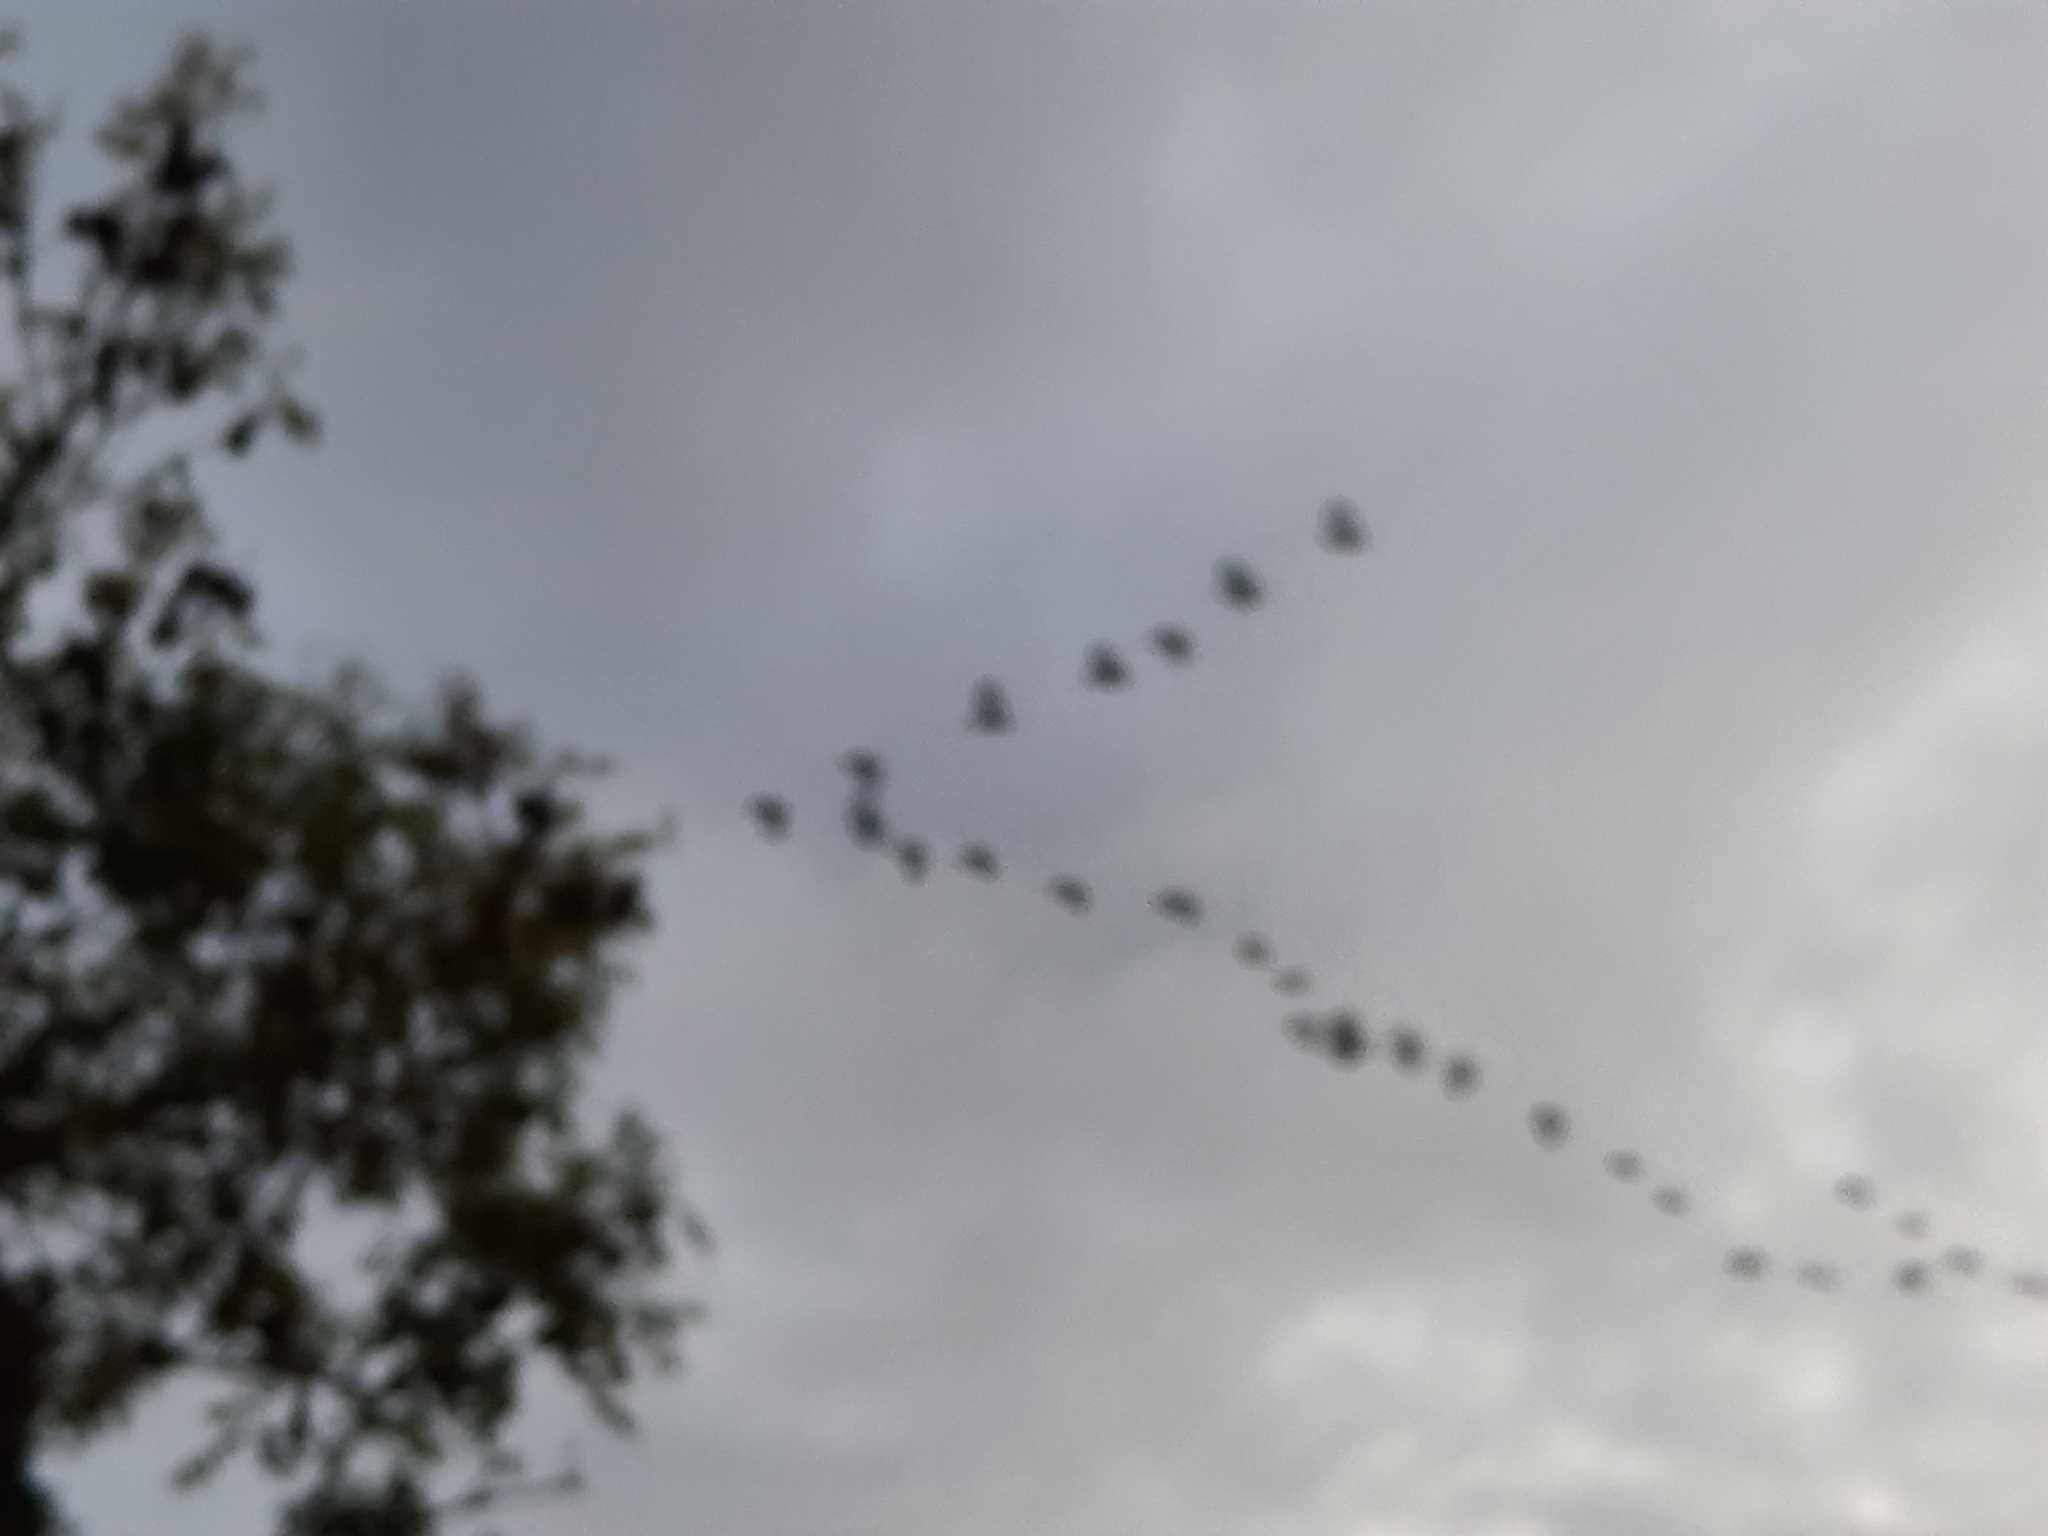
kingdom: Animalia
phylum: Chordata
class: Aves
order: Anseriformes
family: Anatidae
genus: Branta
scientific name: Branta canadensis
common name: Canada goose
